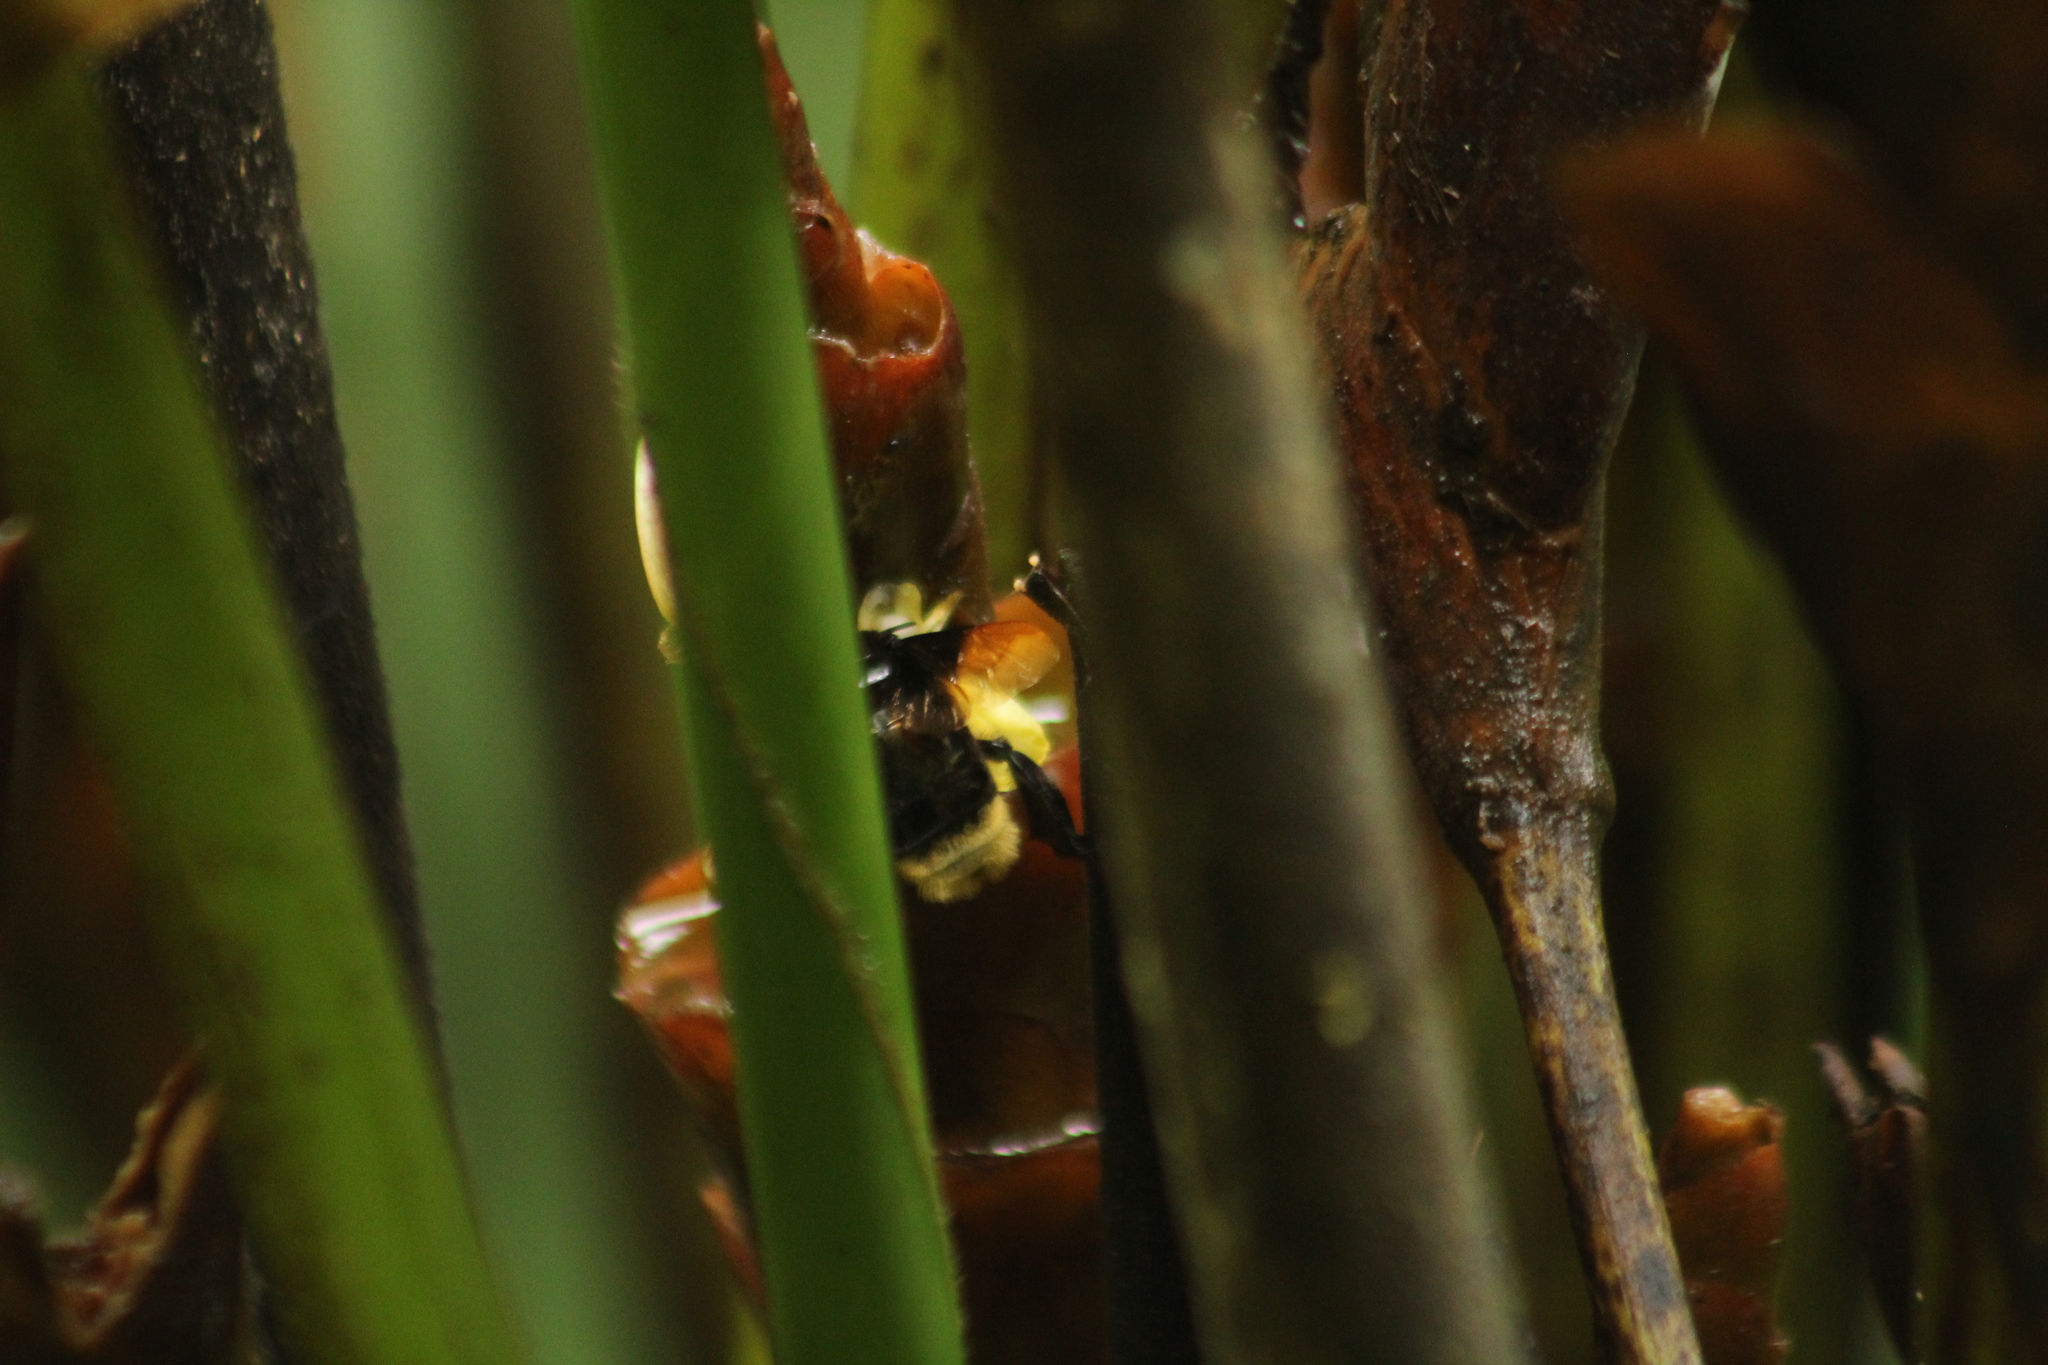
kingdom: Animalia
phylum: Arthropoda
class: Insecta
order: Hymenoptera
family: Apidae
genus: Eulaema
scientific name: Eulaema leucopyga
